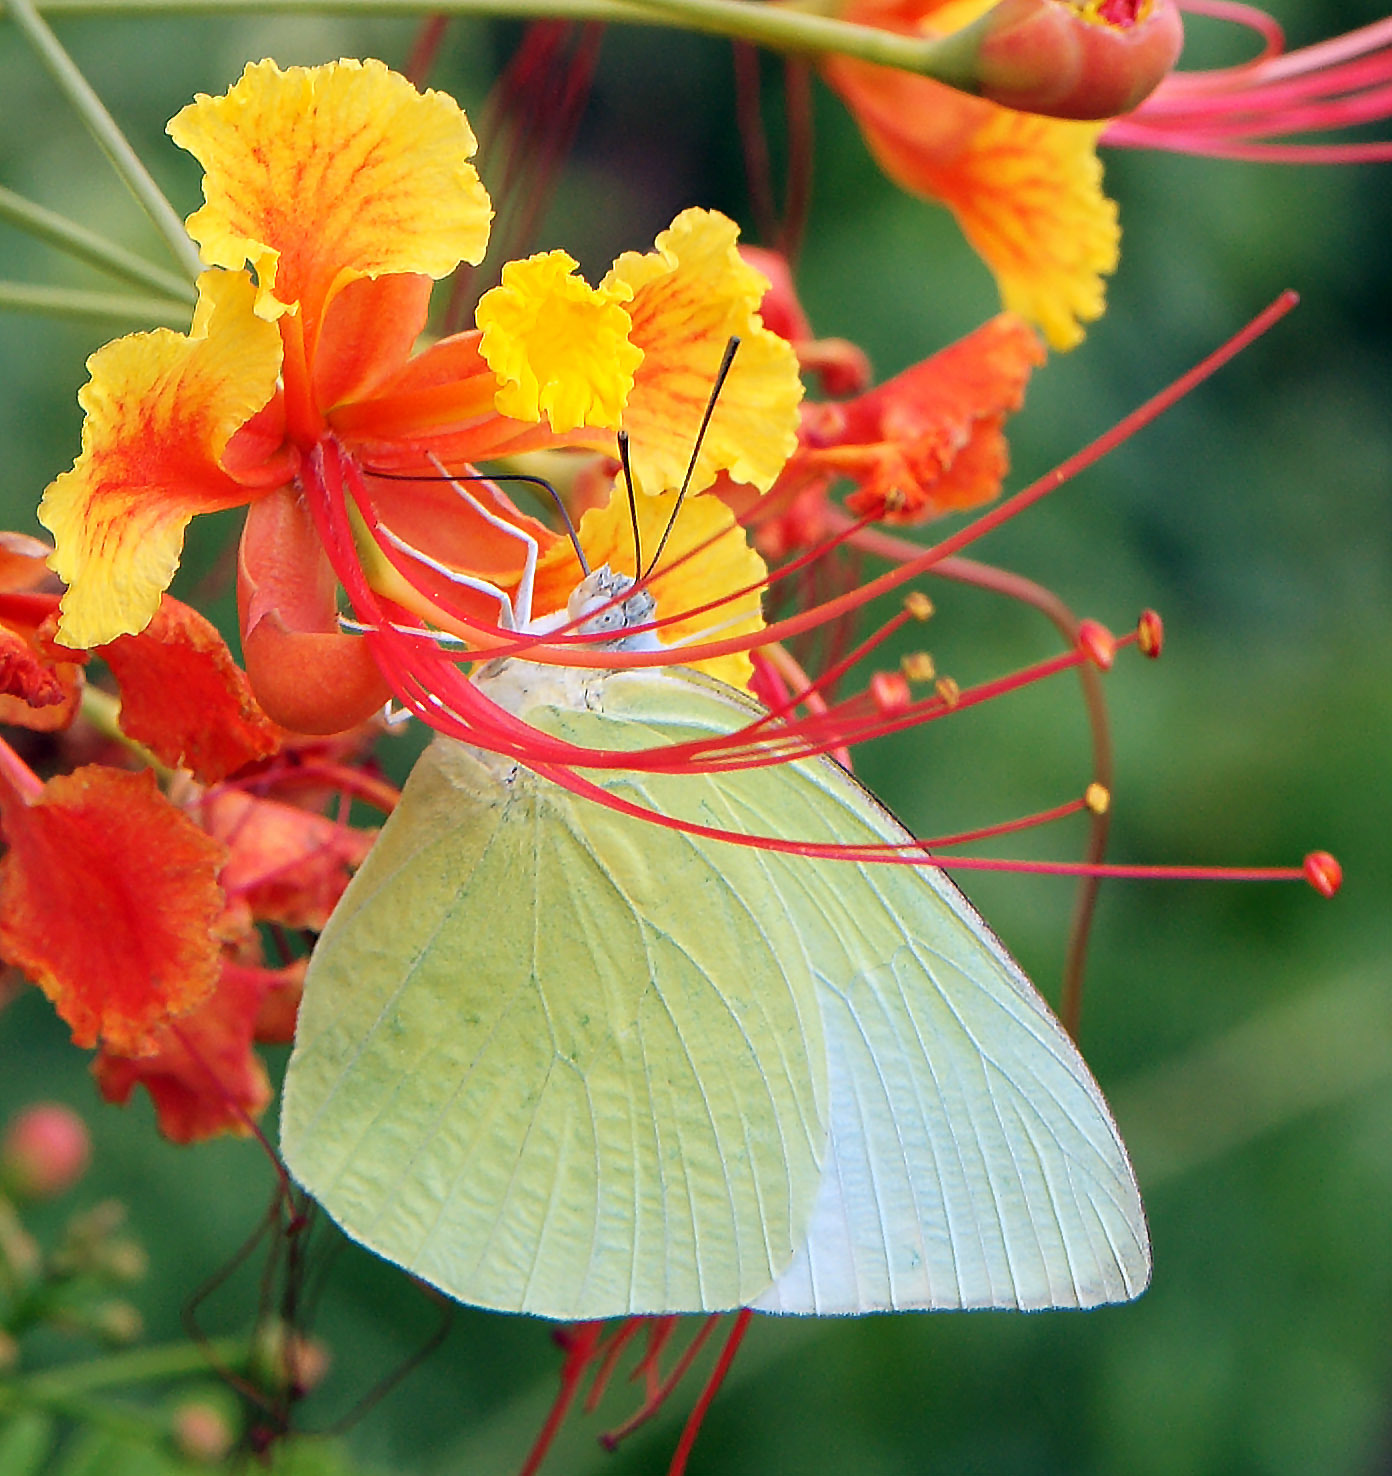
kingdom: Animalia
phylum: Arthropoda
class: Insecta
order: Lepidoptera
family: Pieridae
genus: Catopsilia
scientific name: Catopsilia pomona
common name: Common emigrant
